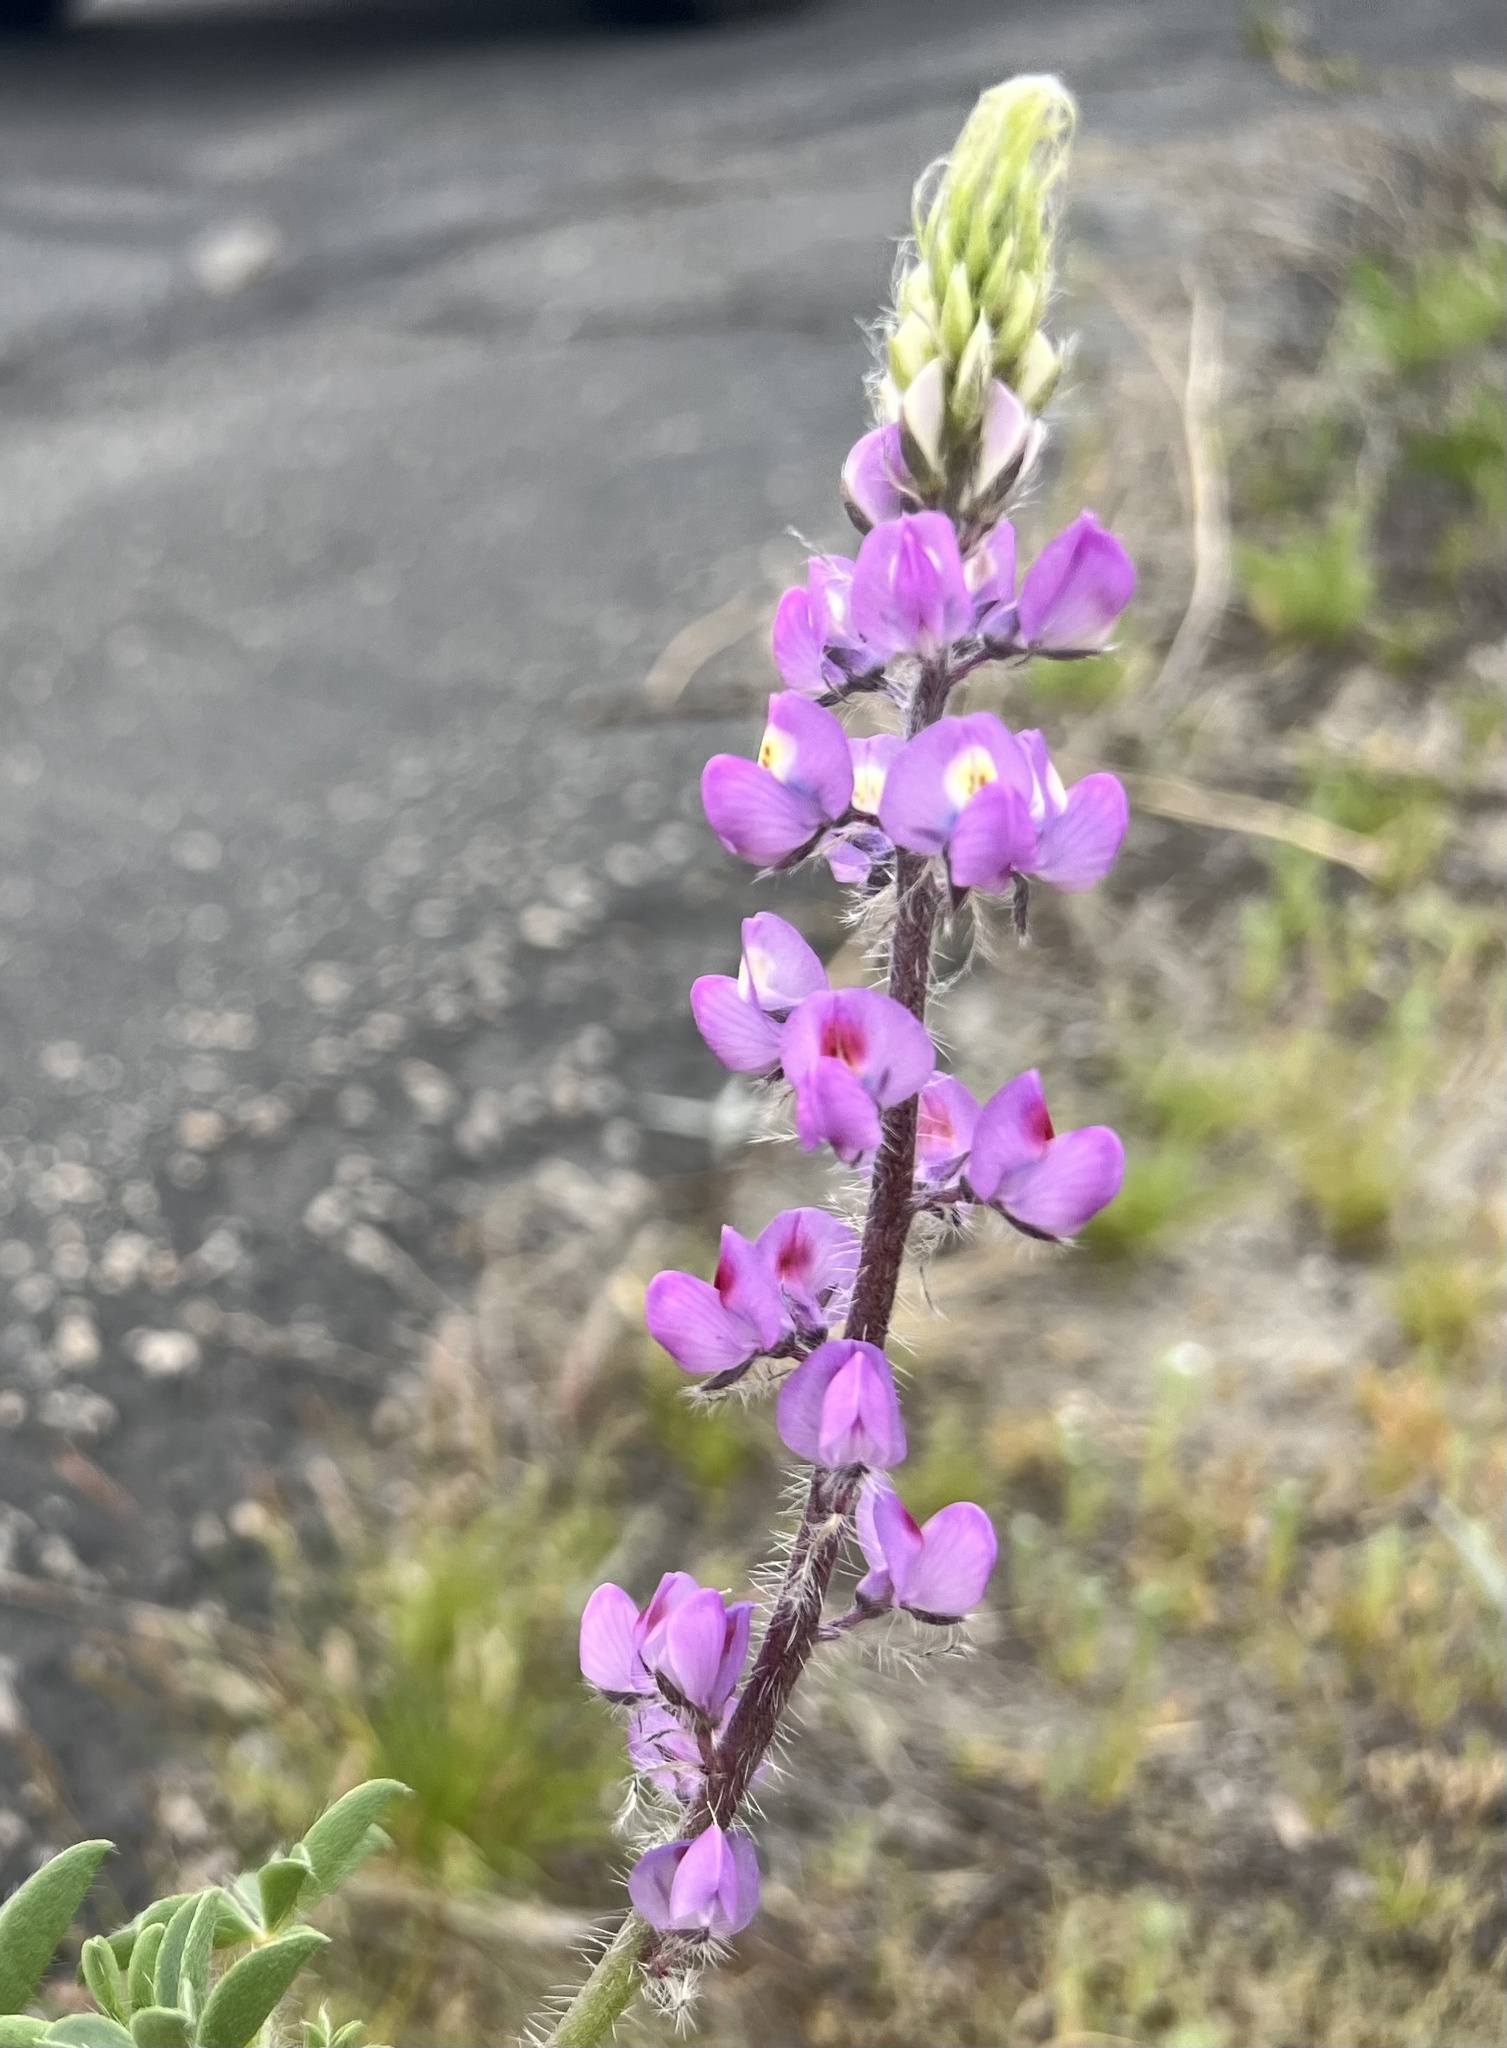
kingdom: Plantae
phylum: Tracheophyta
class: Magnoliopsida
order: Fabales
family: Fabaceae
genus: Lupinus
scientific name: Lupinus arizonicus
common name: Arizona lupine
